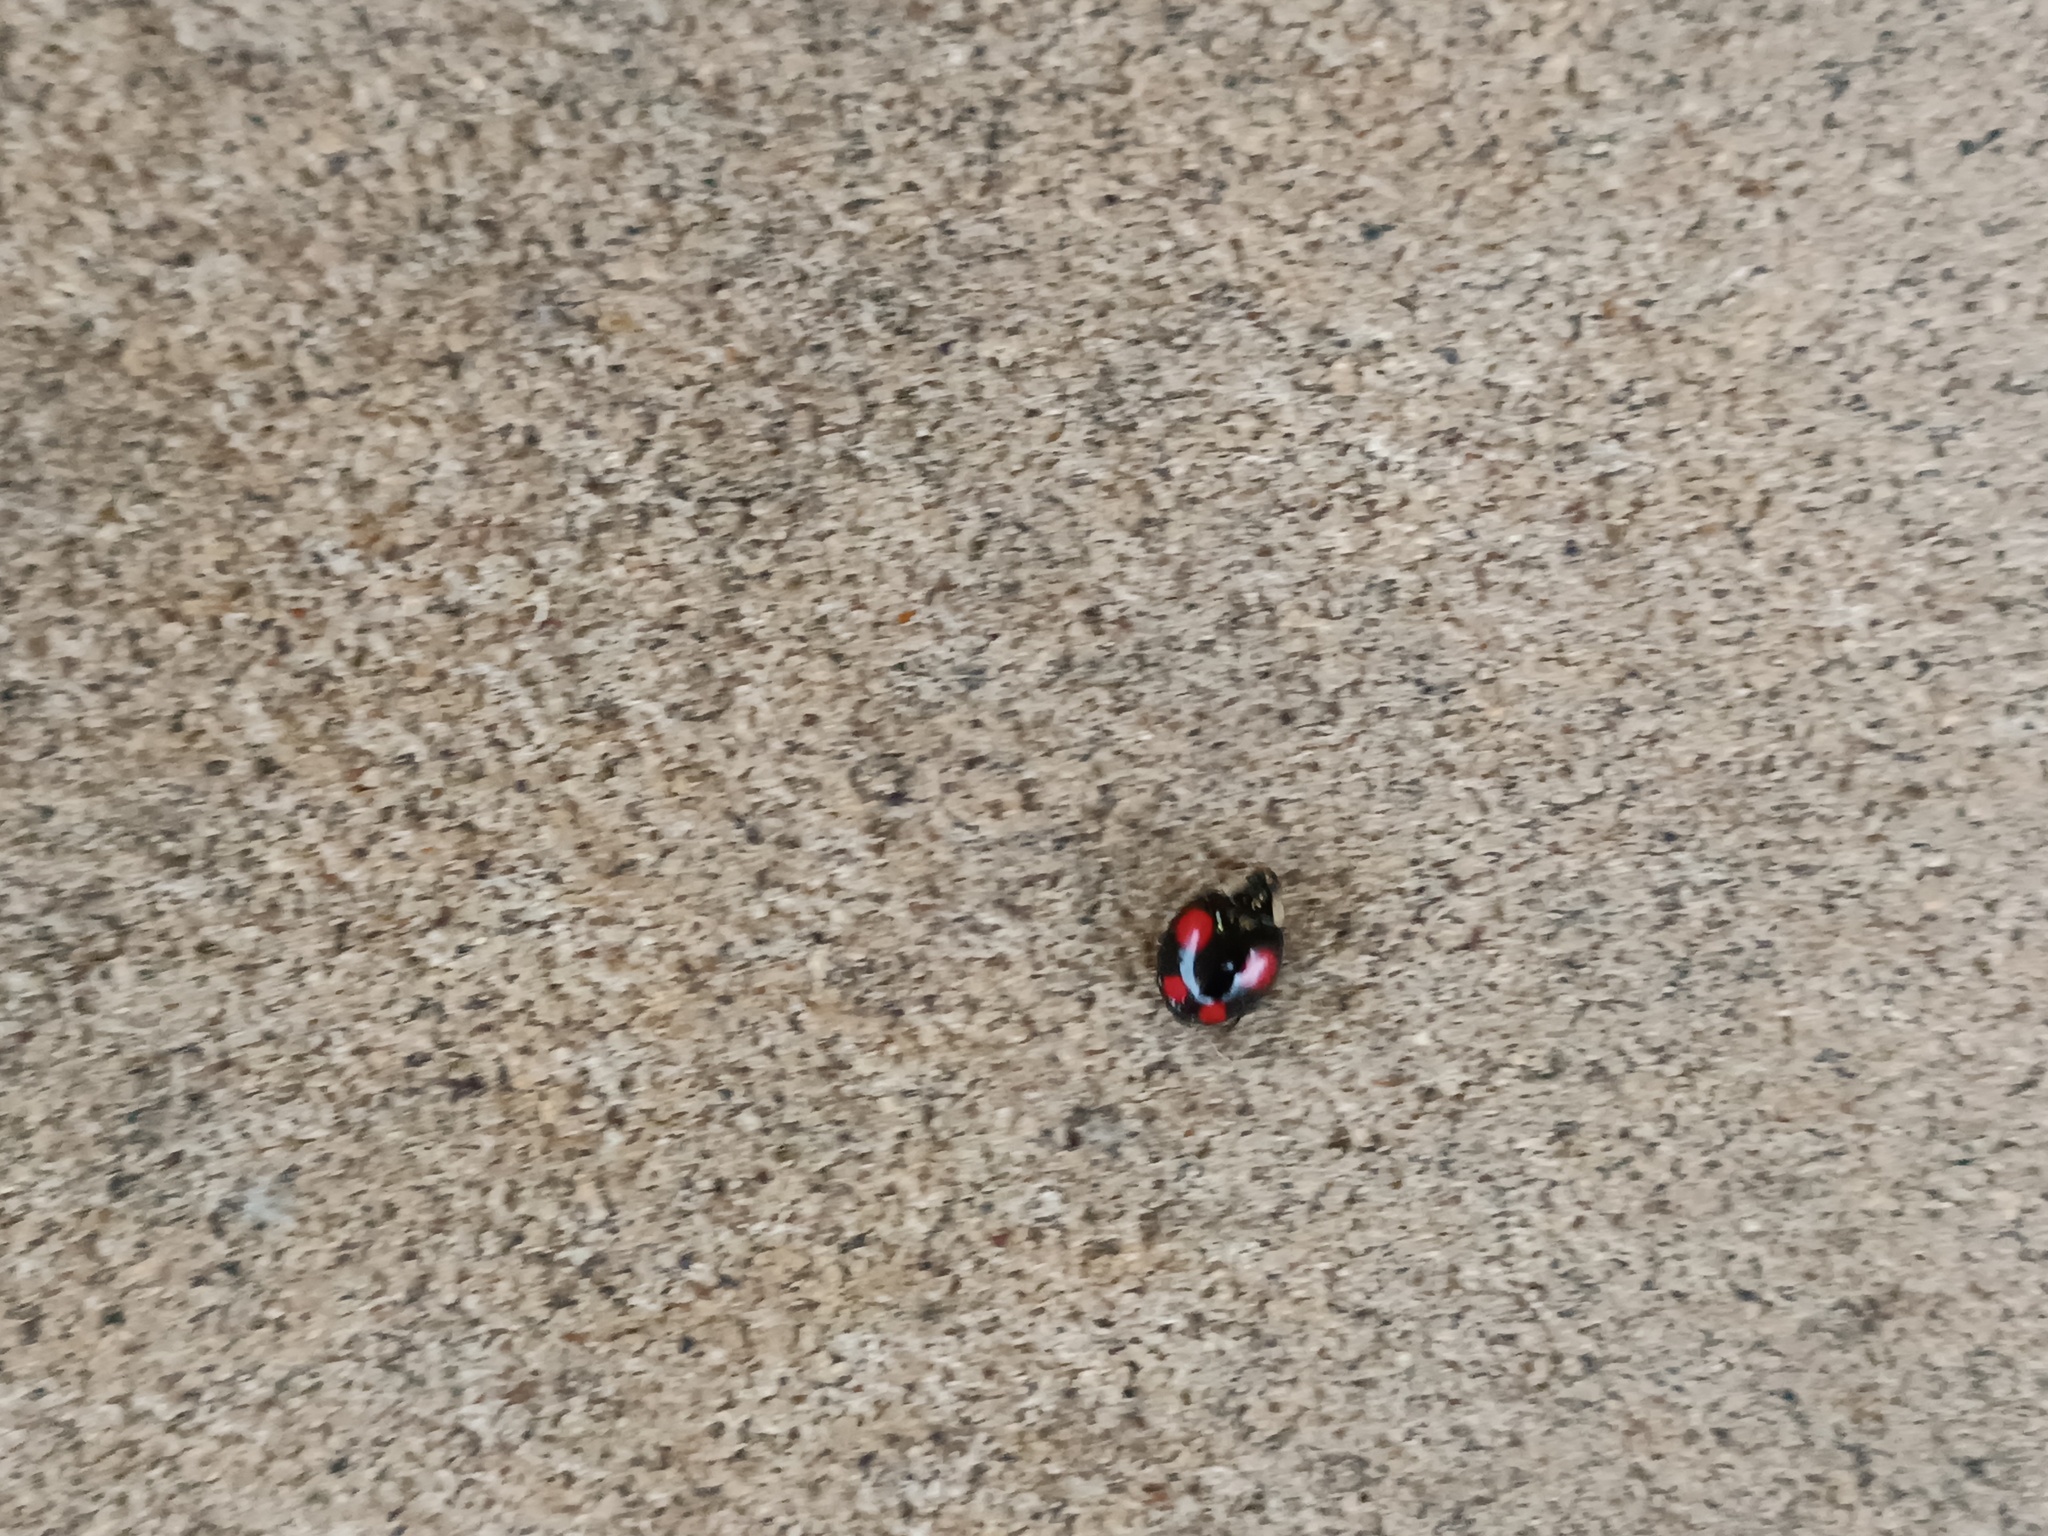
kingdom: Animalia
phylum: Arthropoda
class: Insecta
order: Coleoptera
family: Coccinellidae
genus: Harmonia
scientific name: Harmonia axyridis
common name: Harlequin ladybird
